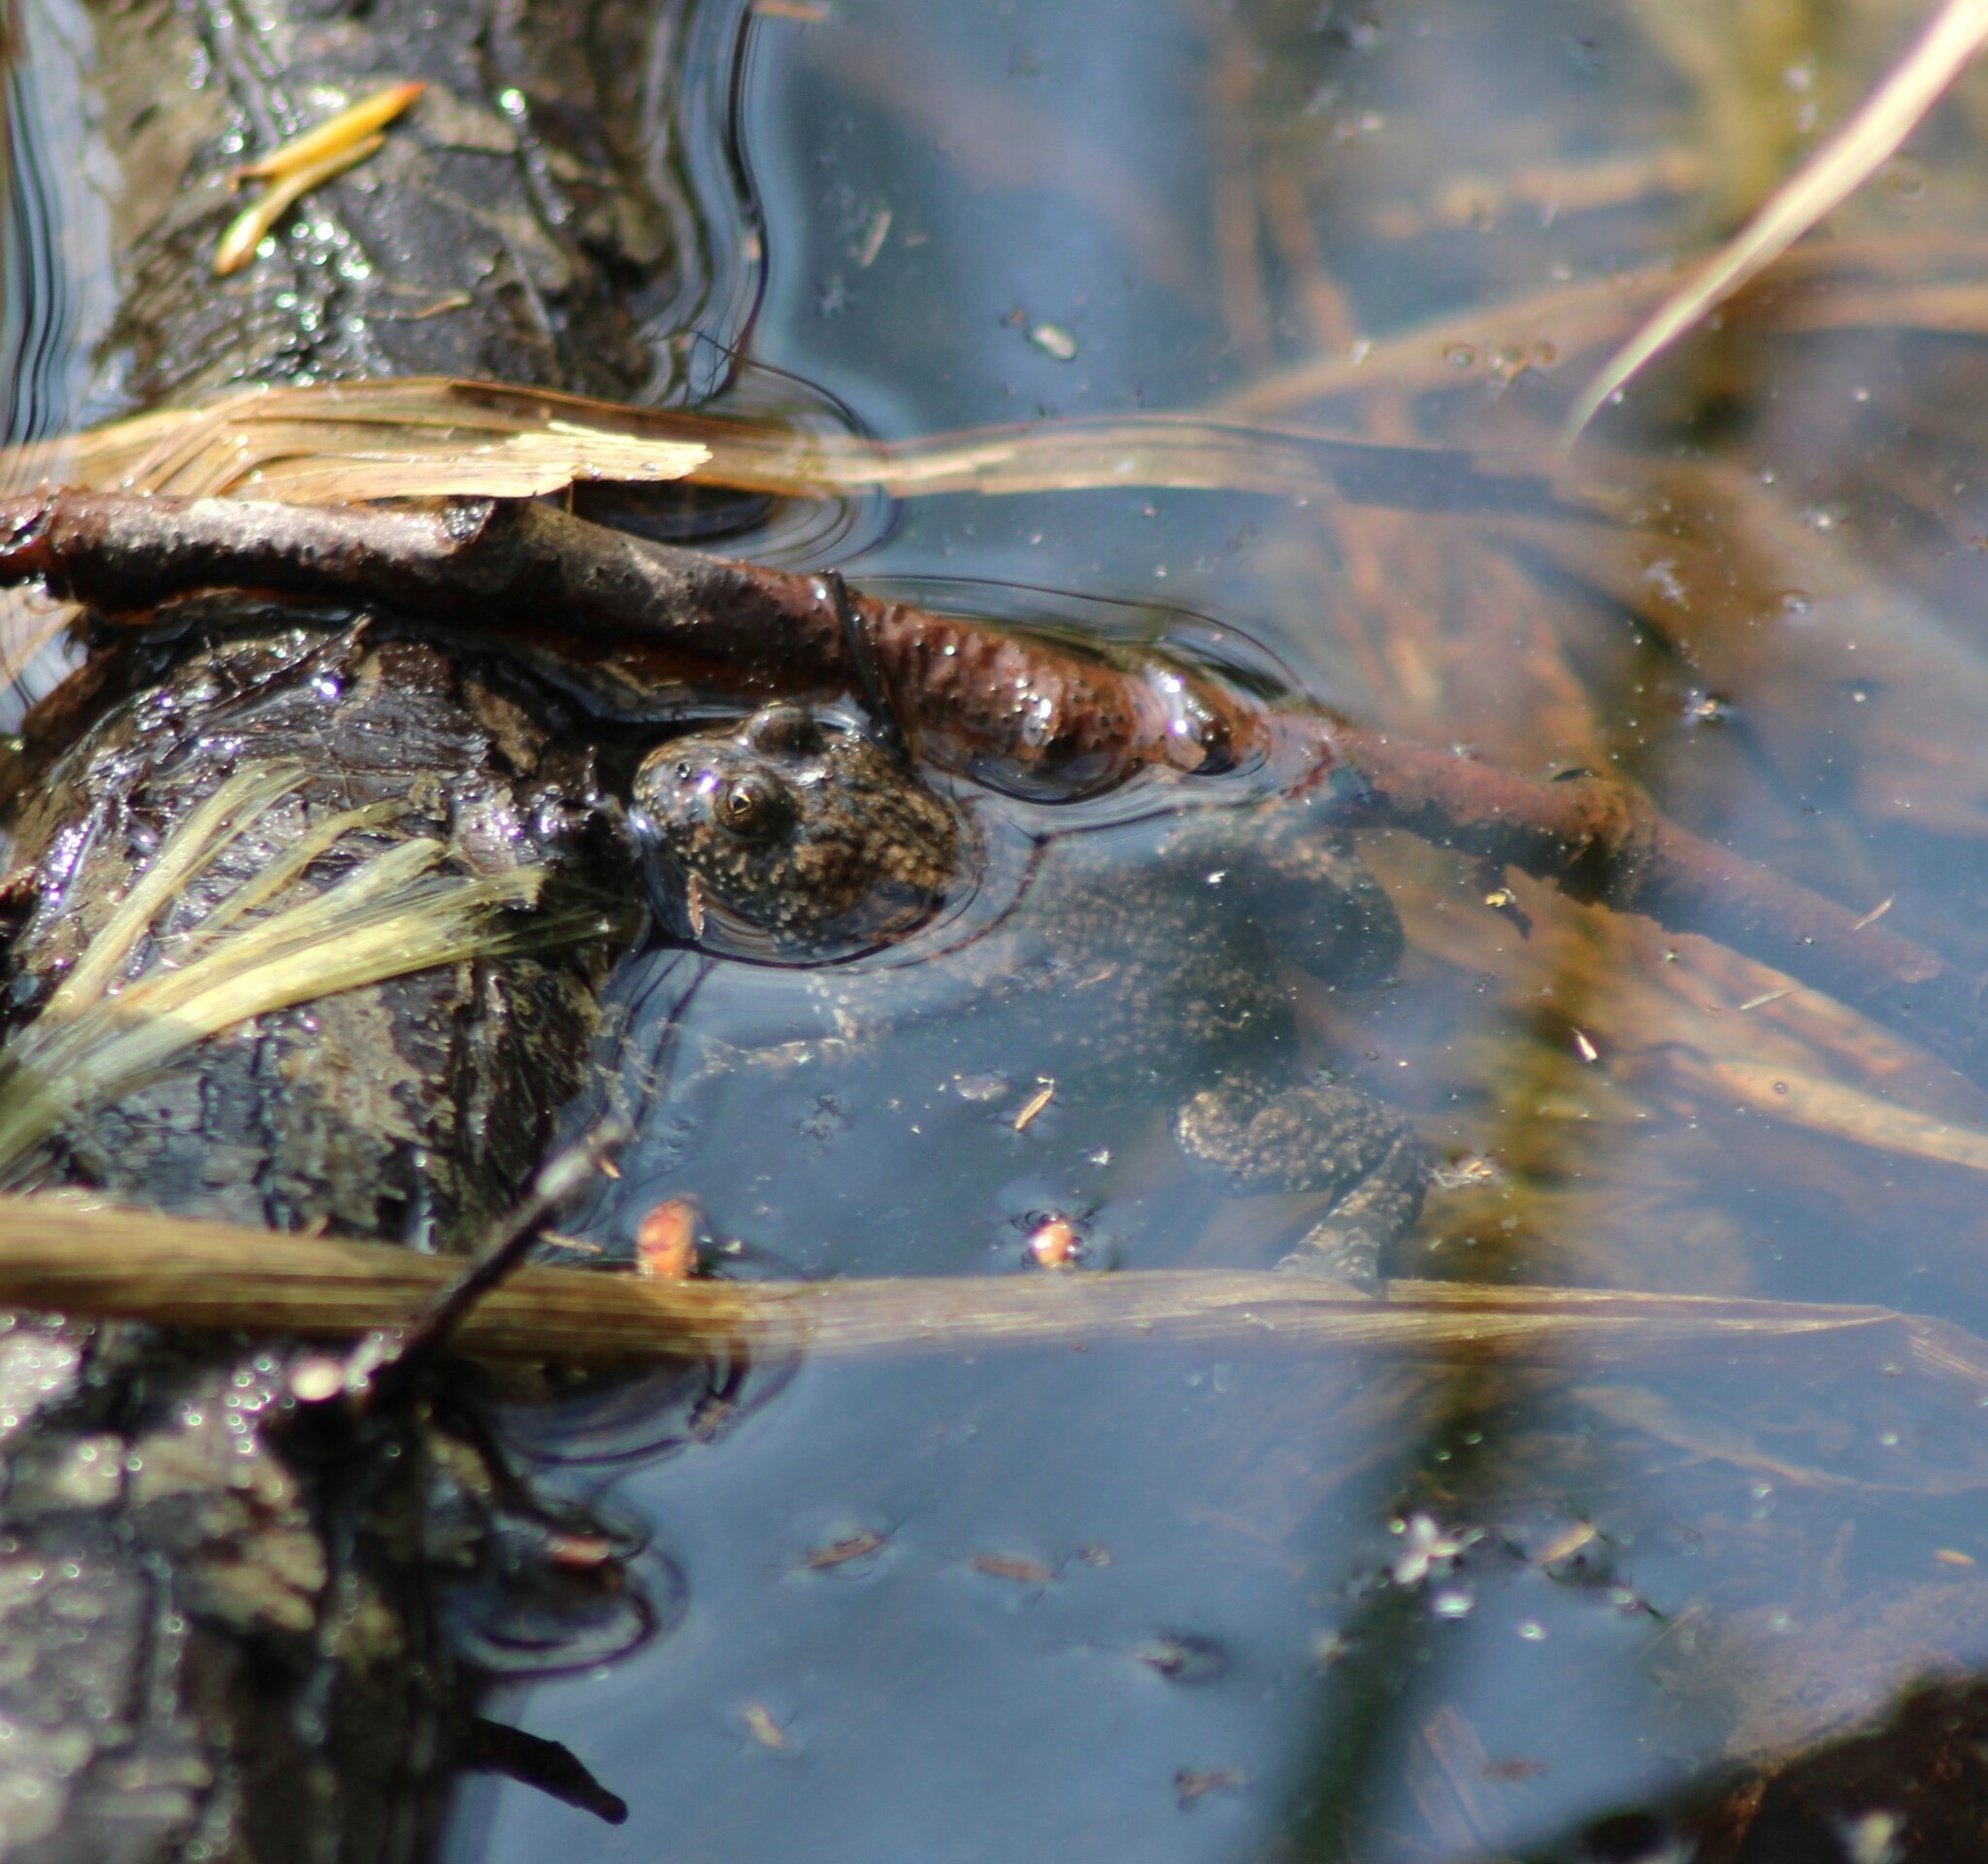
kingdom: Animalia
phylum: Chordata
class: Amphibia
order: Anura
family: Bombinatoridae
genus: Bombina
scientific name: Bombina bombina
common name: Fire-bellied toad
